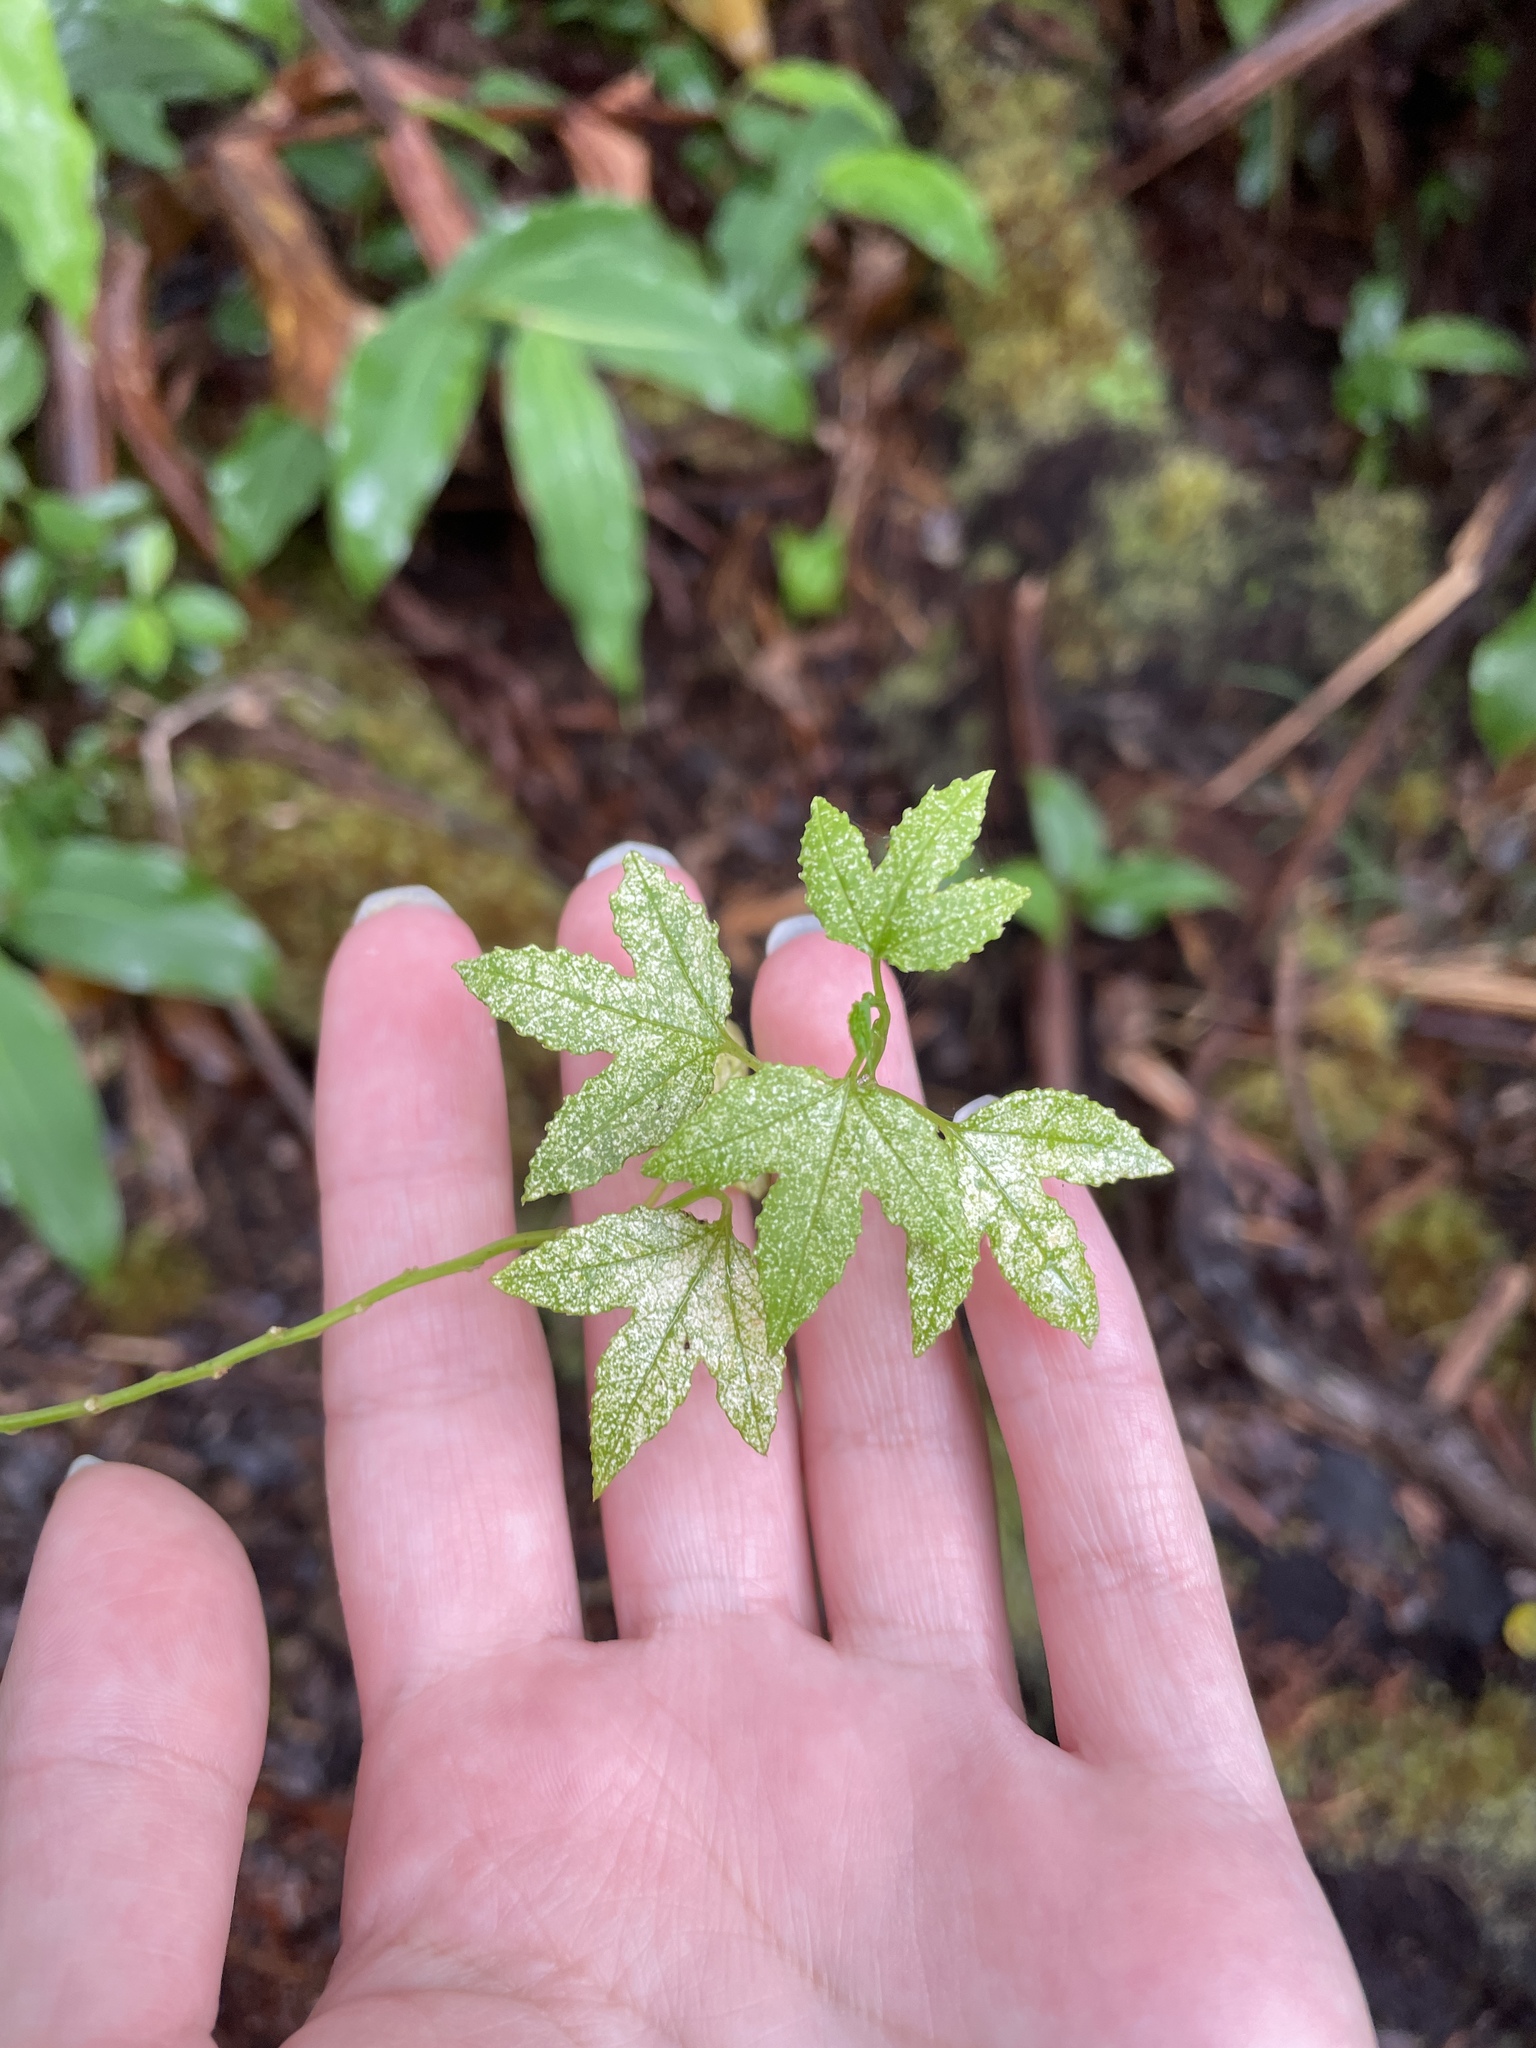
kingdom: Plantae
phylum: Tracheophyta
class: Magnoliopsida
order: Malpighiales
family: Passifloraceae
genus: Passiflora
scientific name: Passiflora tarminiana
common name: Banana poka
